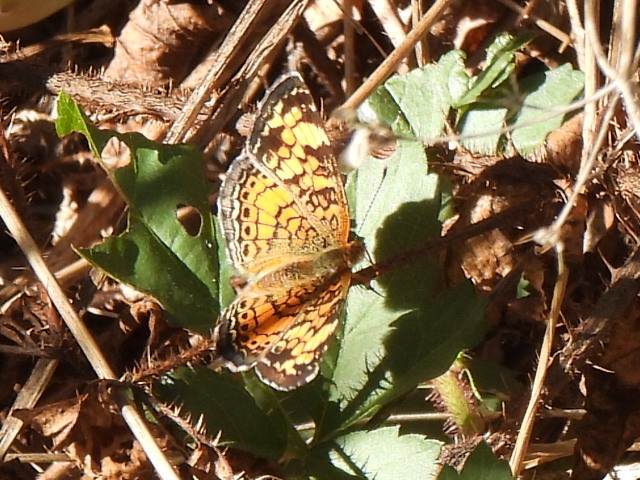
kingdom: Animalia
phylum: Arthropoda
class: Insecta
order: Lepidoptera
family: Nymphalidae
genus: Phyciodes
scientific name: Phyciodes tharos
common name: Pearl crescent
